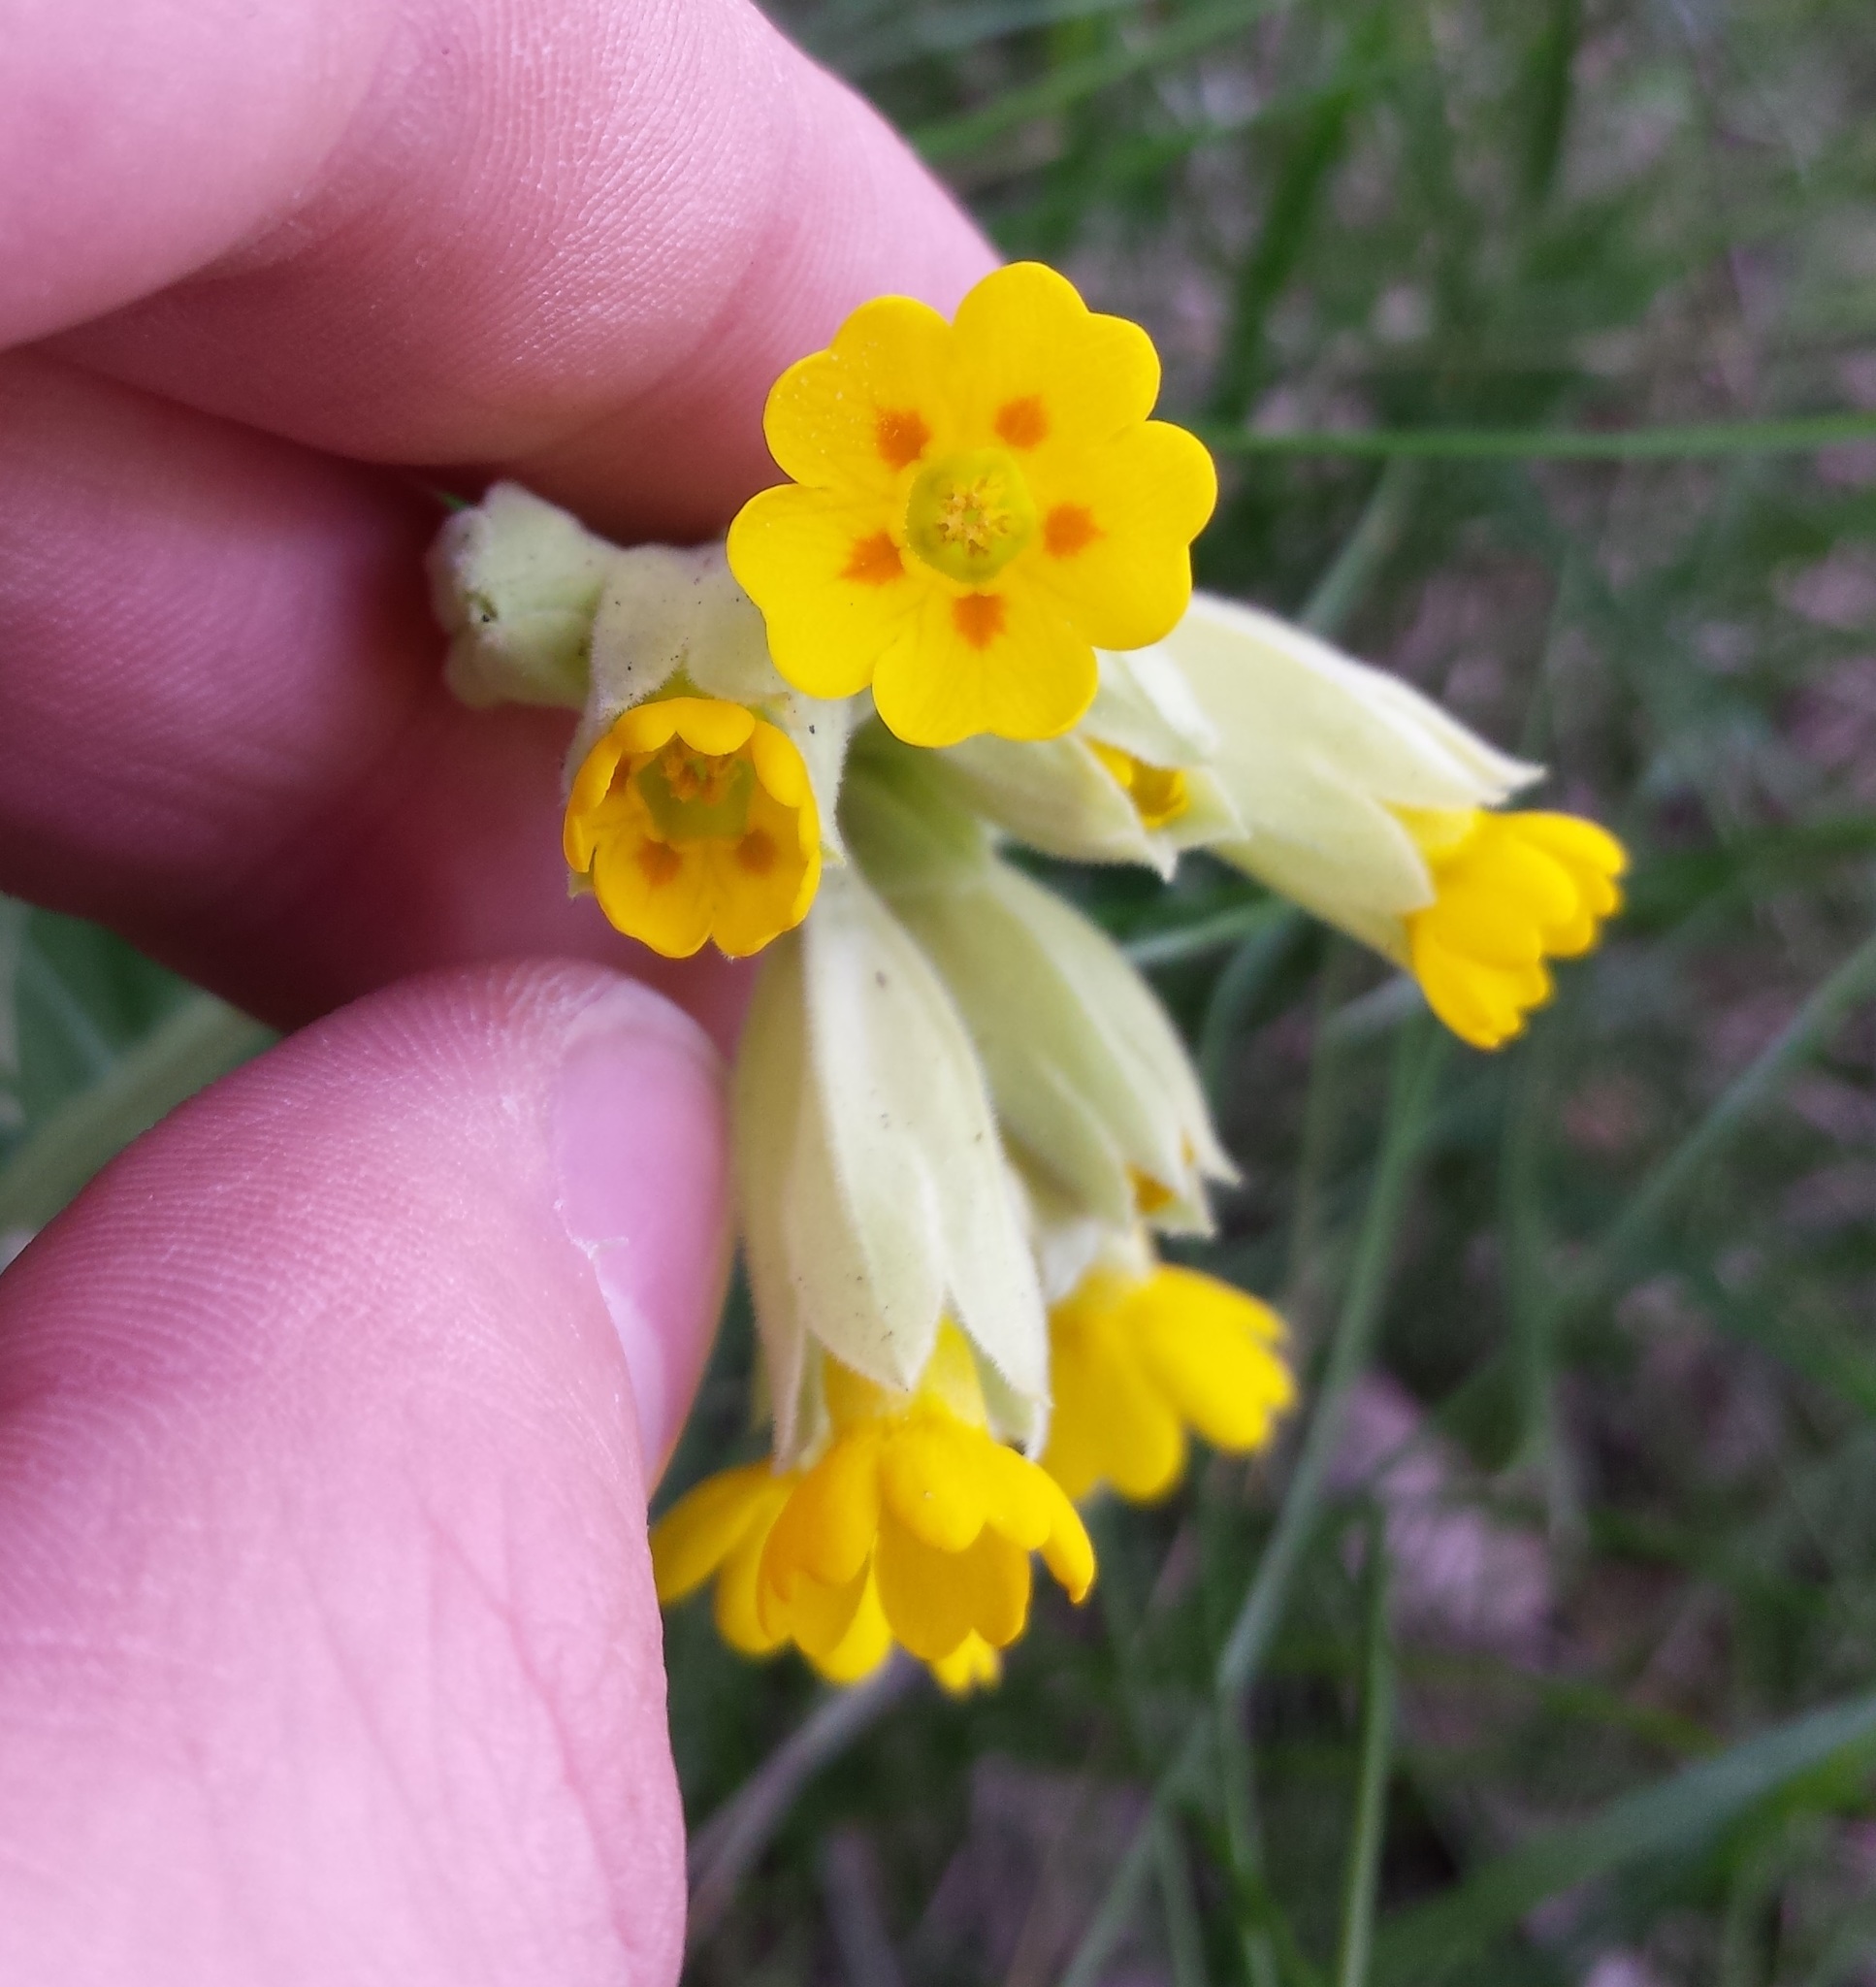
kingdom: Plantae
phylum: Tracheophyta
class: Magnoliopsida
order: Ericales
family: Primulaceae
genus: Primula
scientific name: Primula veris
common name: Cowslip
